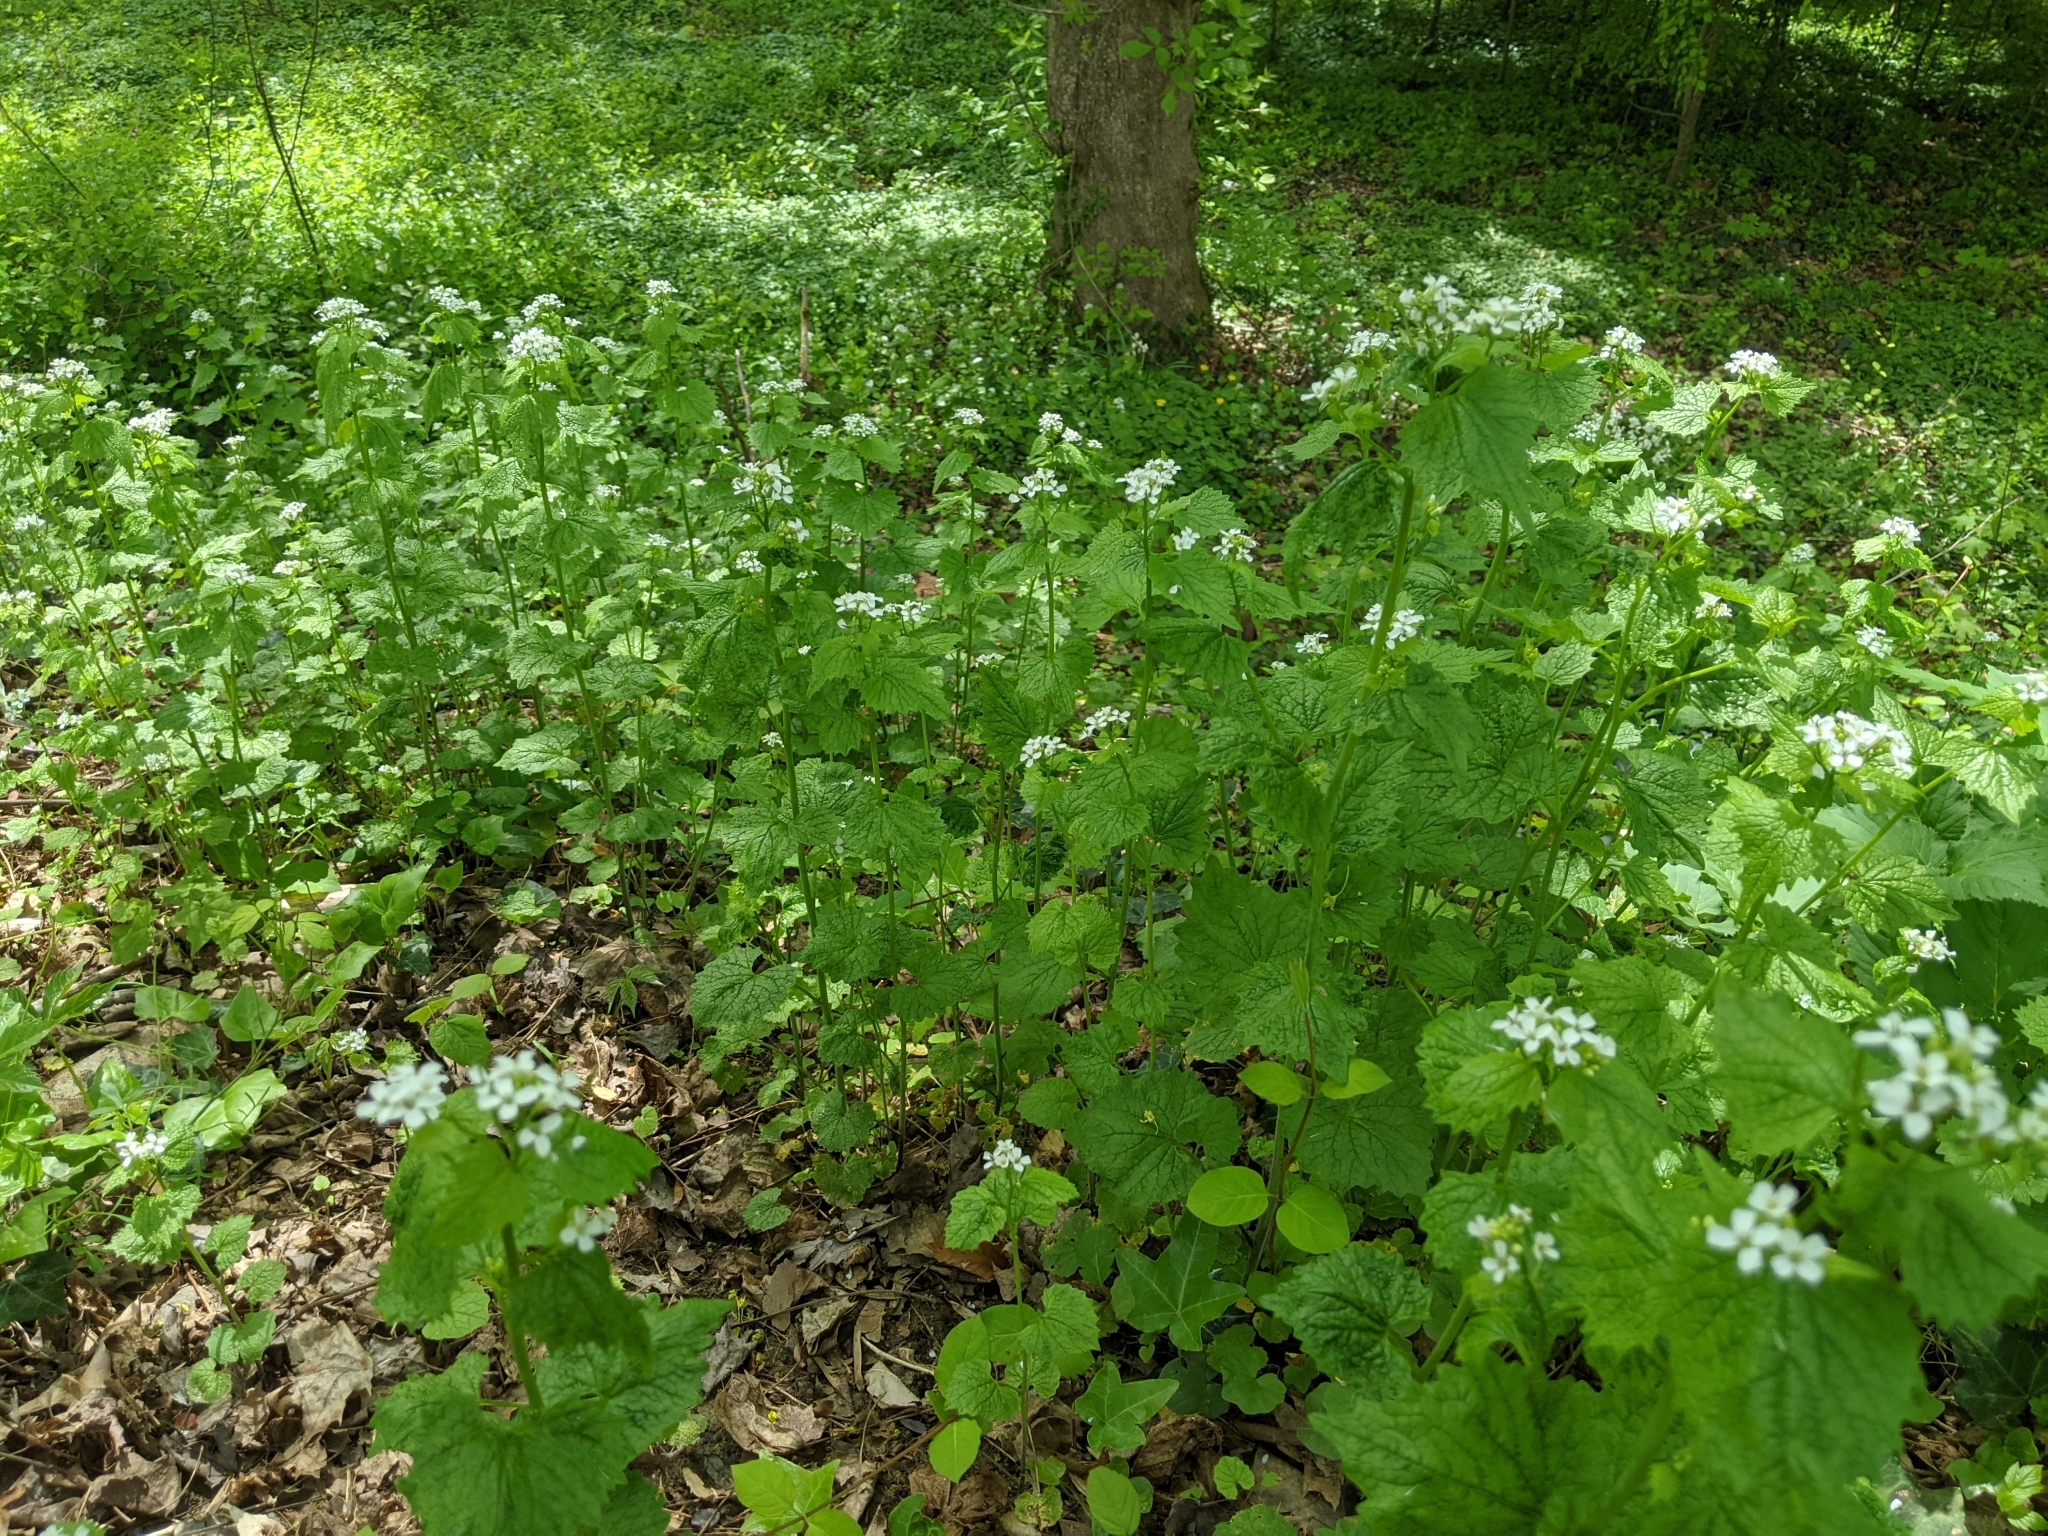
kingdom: Plantae
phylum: Tracheophyta
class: Magnoliopsida
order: Brassicales
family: Brassicaceae
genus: Alliaria
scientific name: Alliaria petiolata
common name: Garlic mustard
